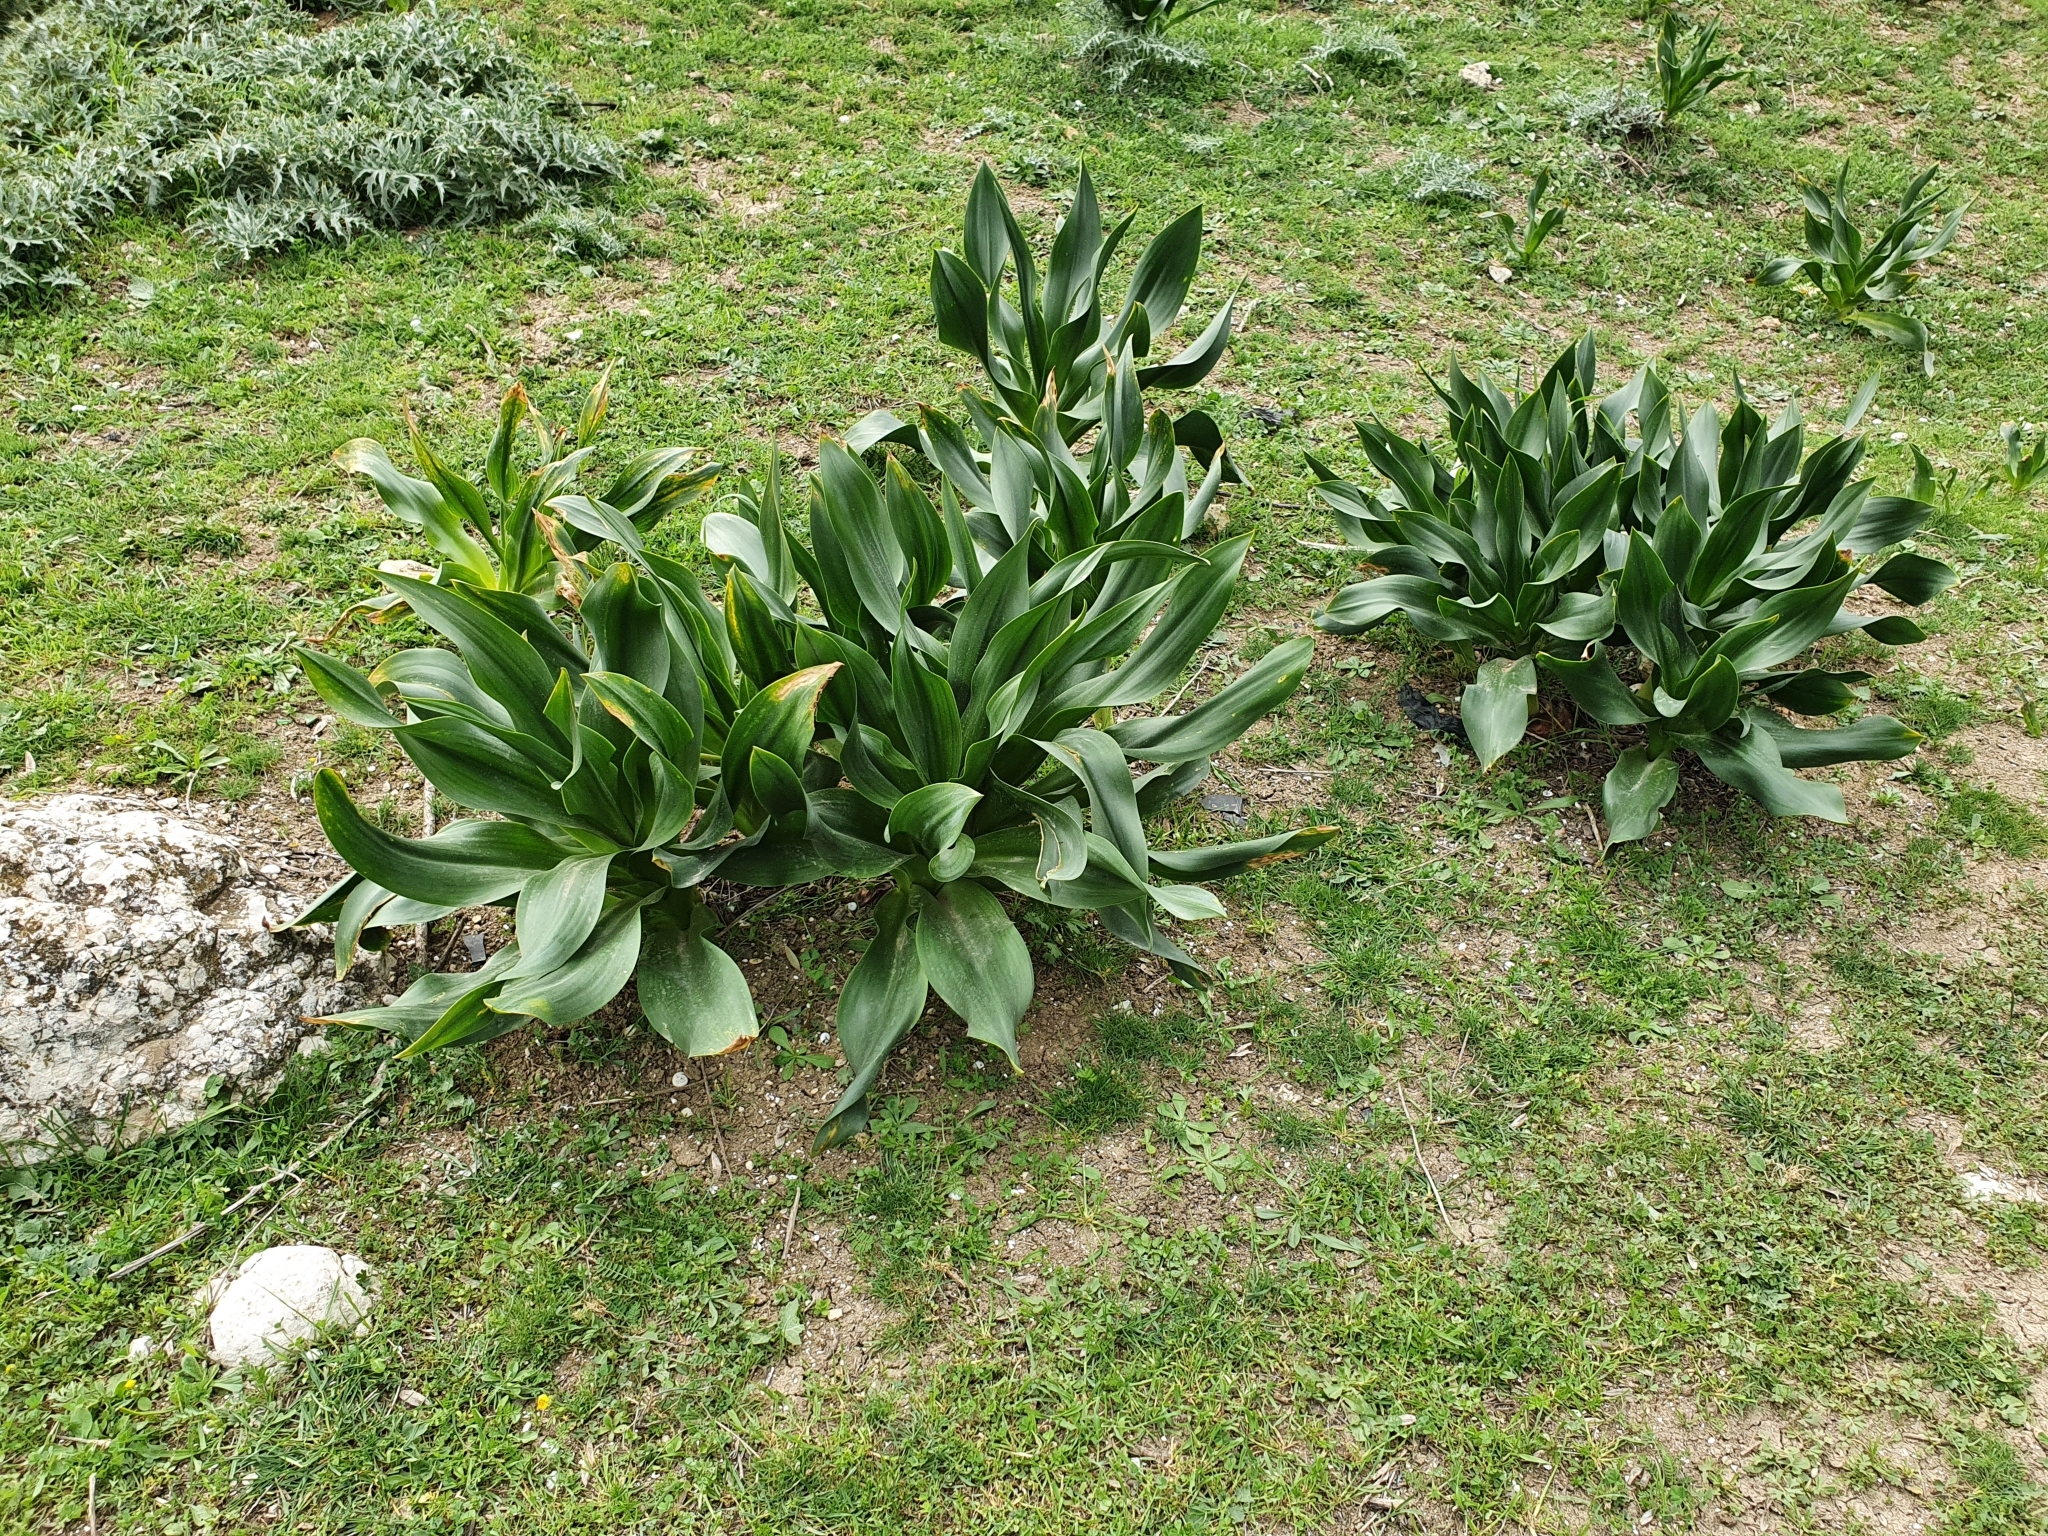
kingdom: Plantae
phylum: Tracheophyta
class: Liliopsida
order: Asparagales
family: Asparagaceae
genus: Drimia
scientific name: Drimia numidica
